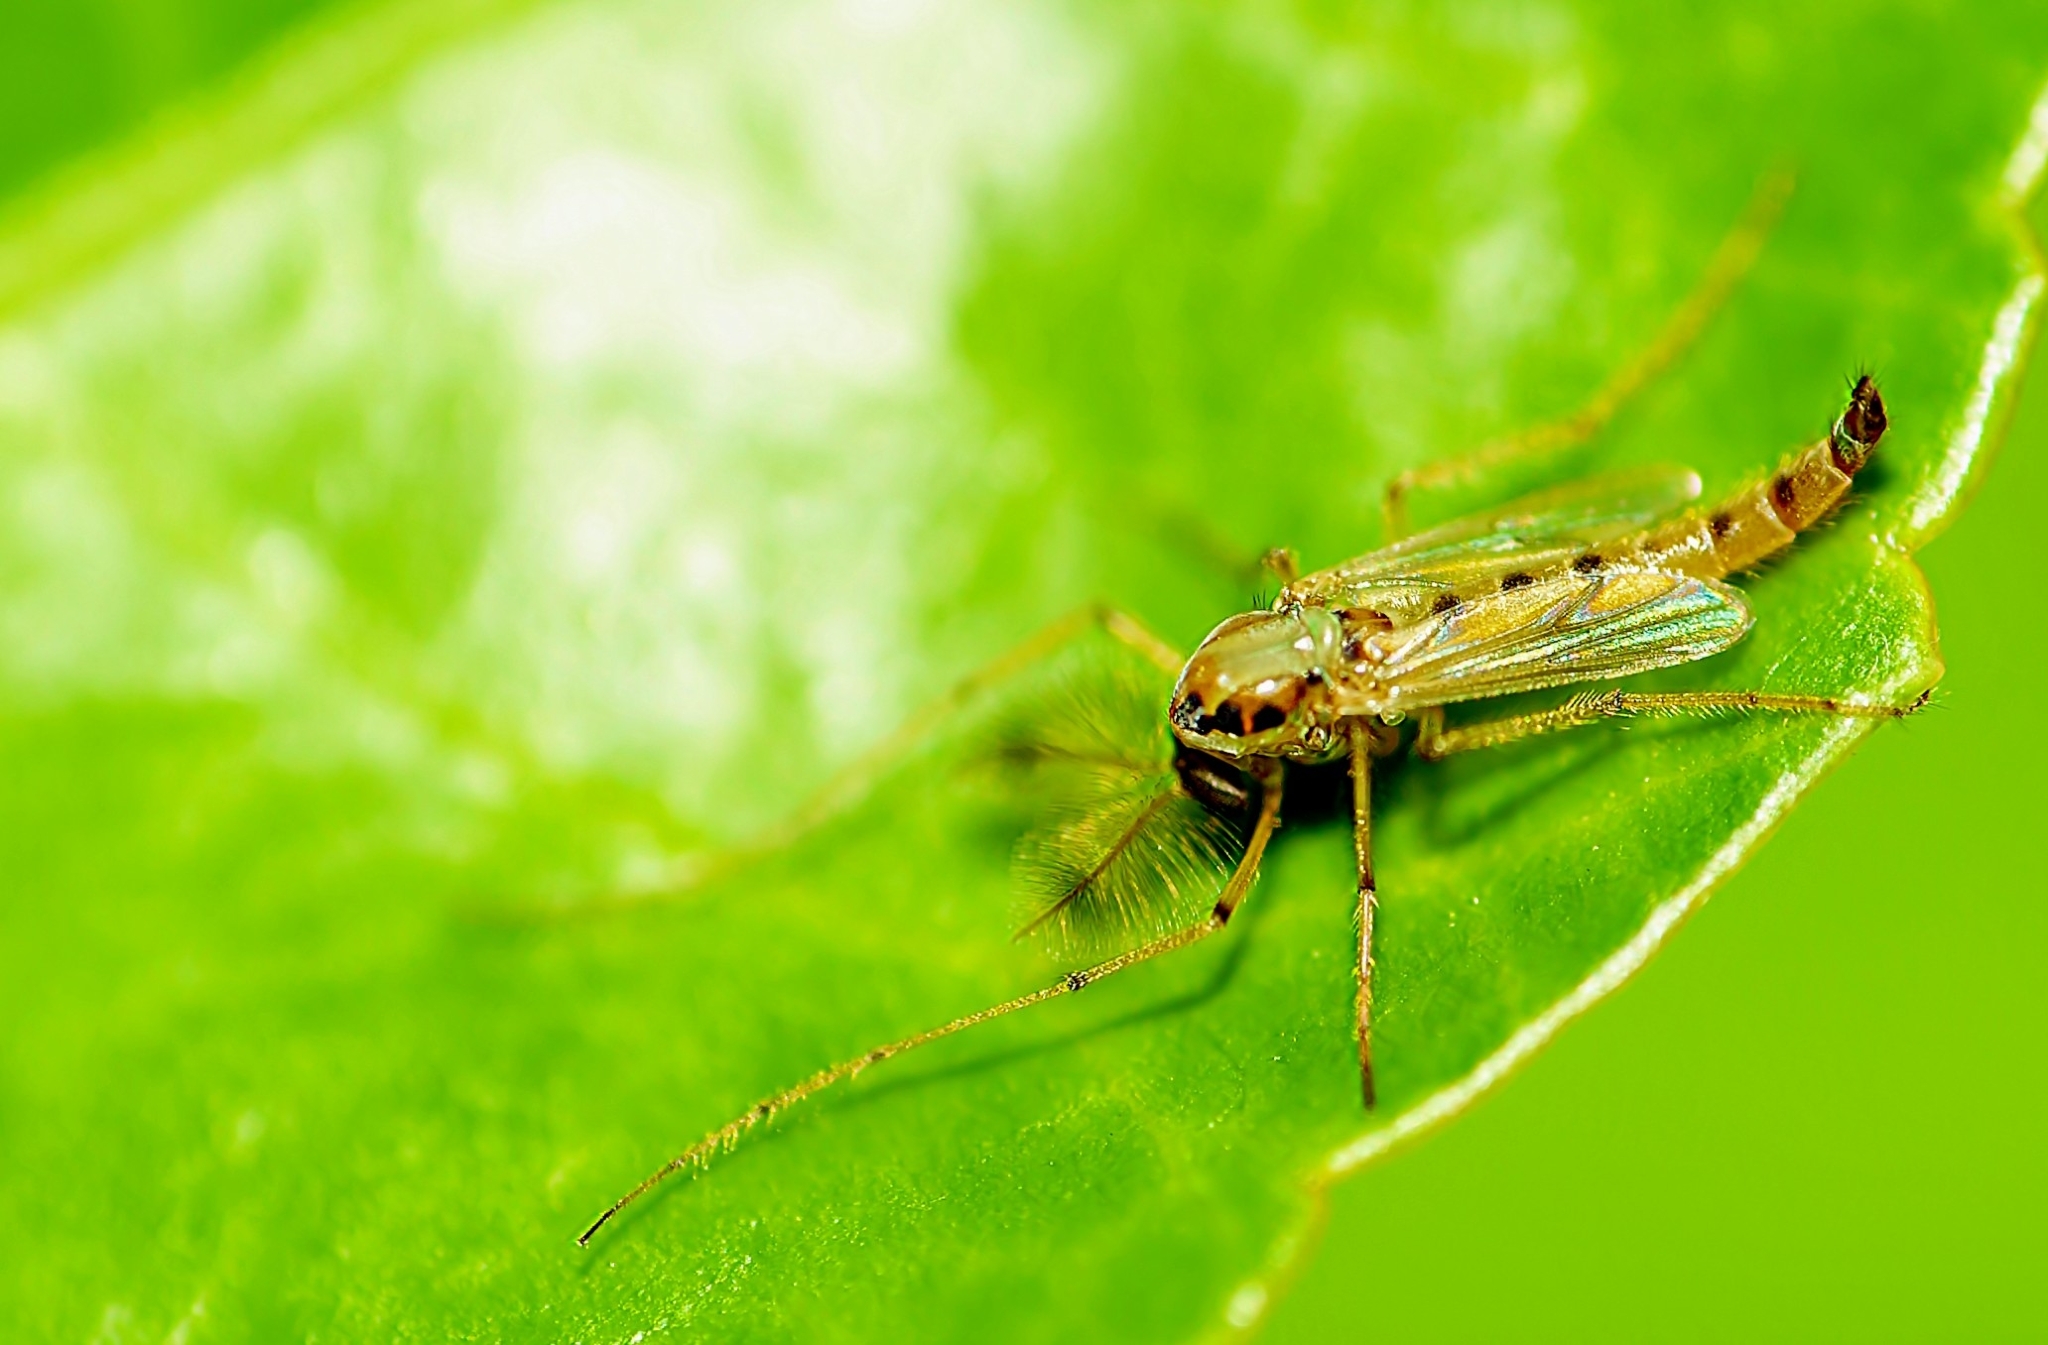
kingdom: Animalia
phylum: Arthropoda
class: Insecta
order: Diptera
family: Chironomidae
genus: Goeldichironomus
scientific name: Goeldichironomus carus
